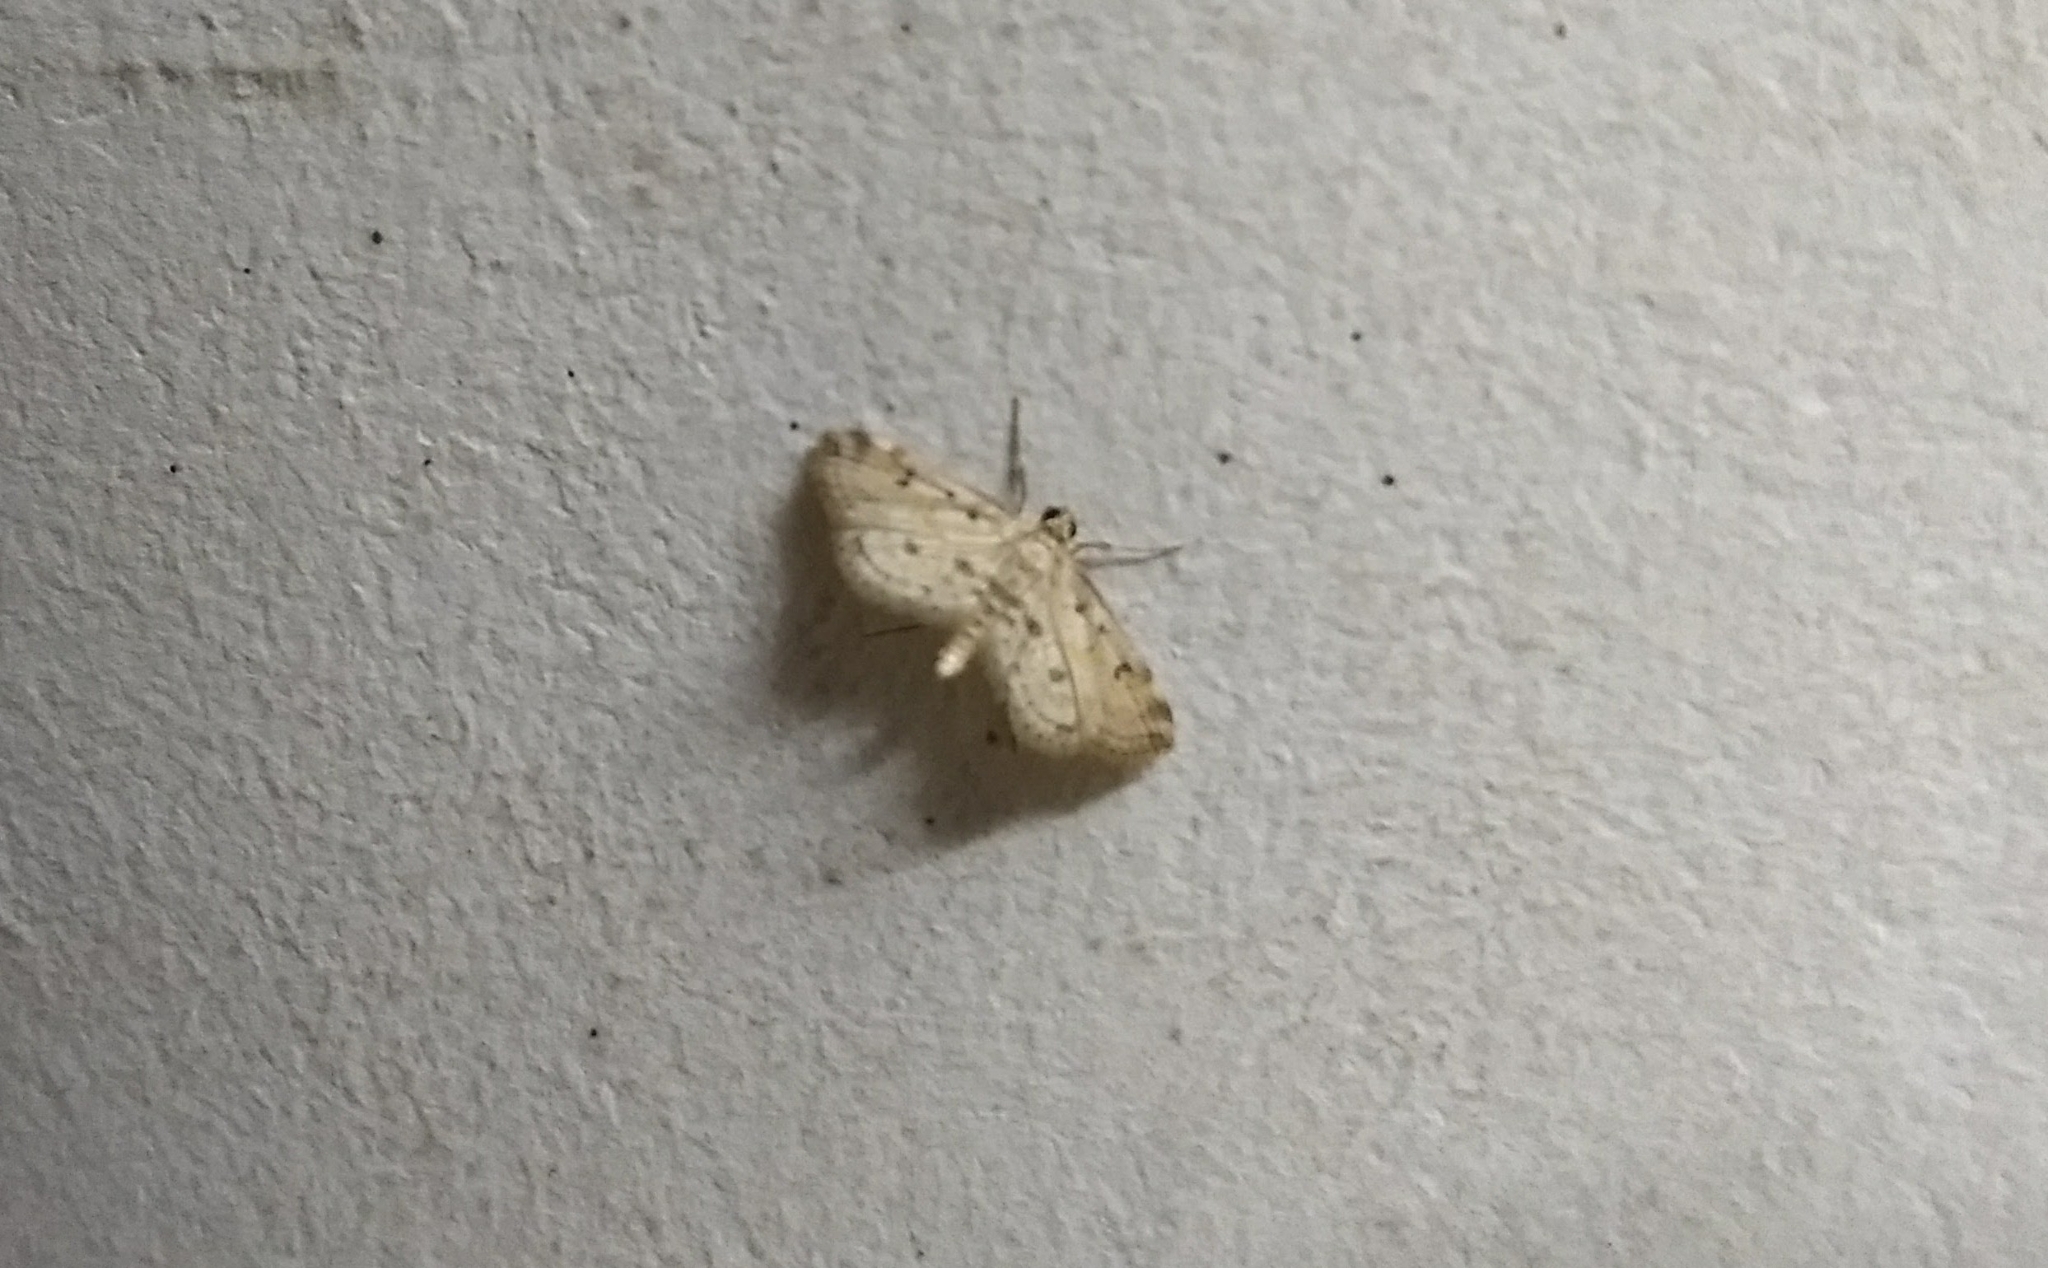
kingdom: Animalia
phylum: Arthropoda
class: Insecta
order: Lepidoptera
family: Crambidae
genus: Parapoynx
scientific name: Parapoynx crisonalis
